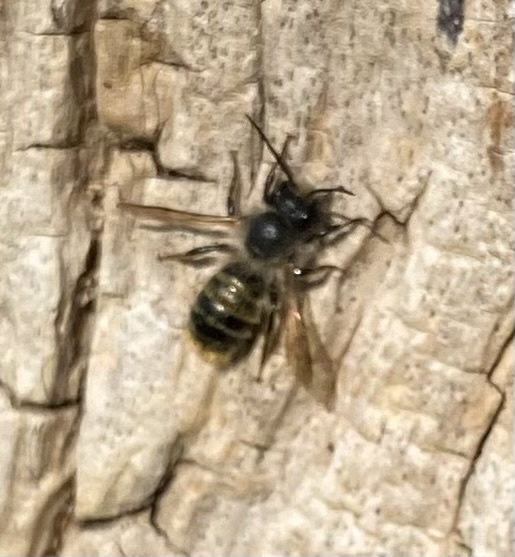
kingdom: Animalia
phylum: Arthropoda
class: Insecta
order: Hymenoptera
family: Megachilidae
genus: Osmia
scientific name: Osmia bicornis
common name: Red mason bee
